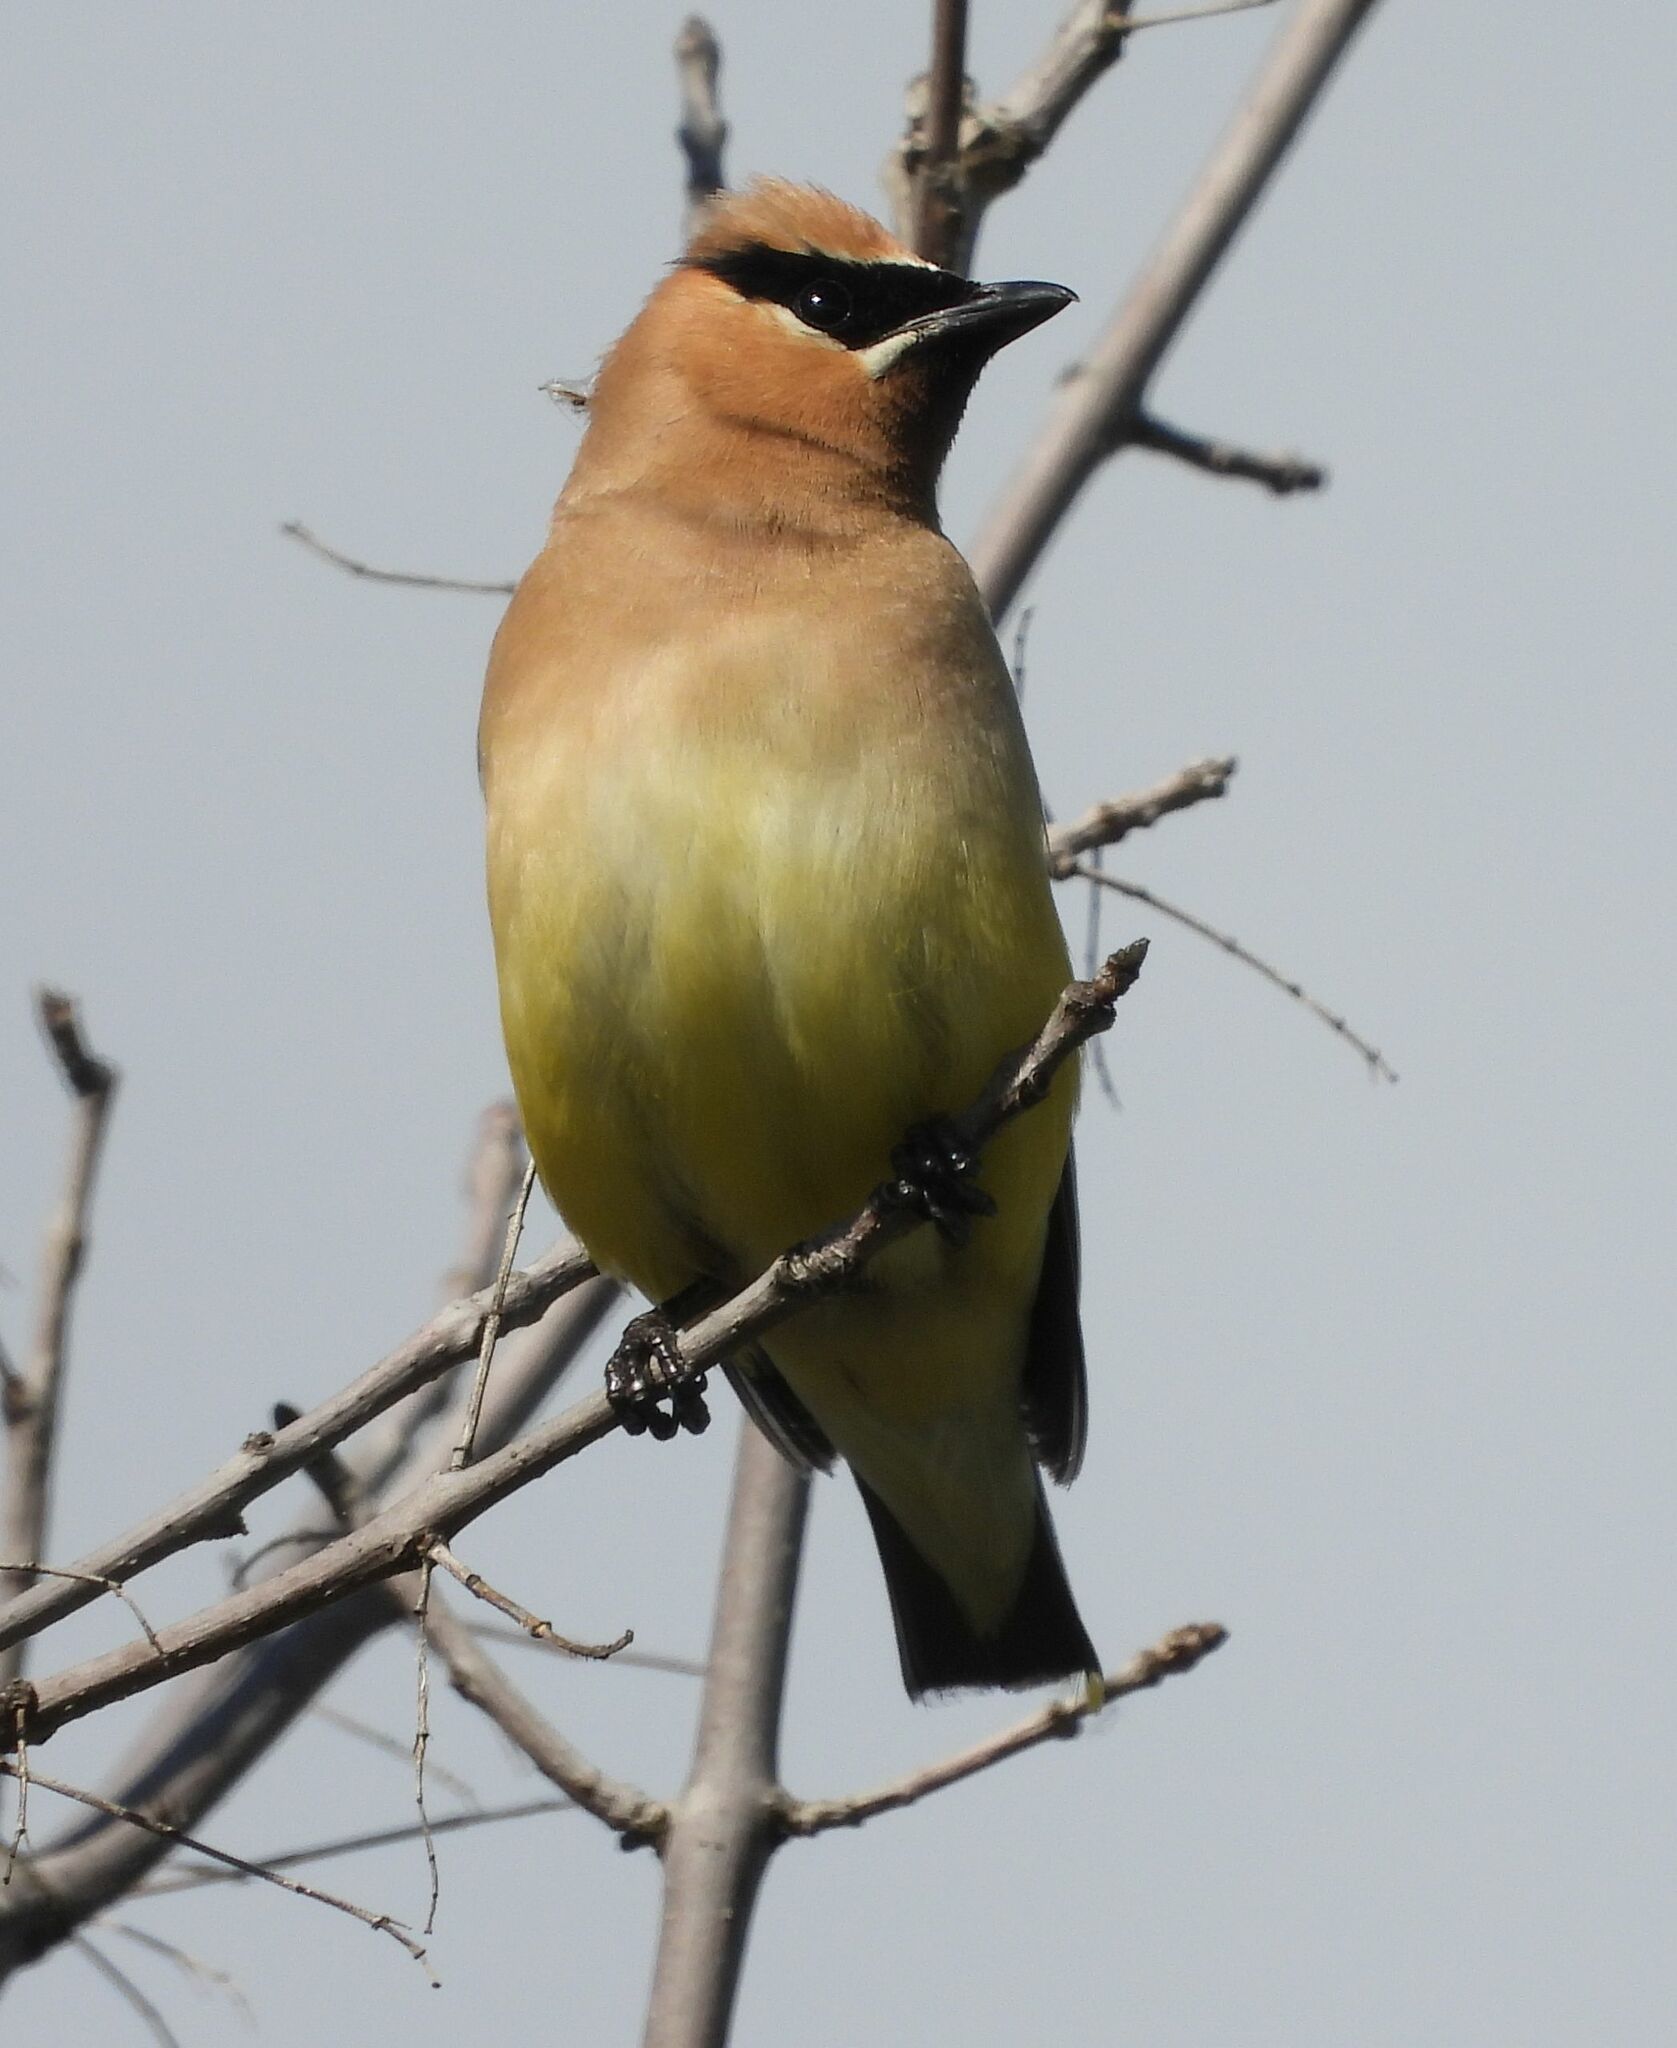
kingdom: Animalia
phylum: Chordata
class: Aves
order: Passeriformes
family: Bombycillidae
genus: Bombycilla
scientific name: Bombycilla cedrorum
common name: Cedar waxwing
